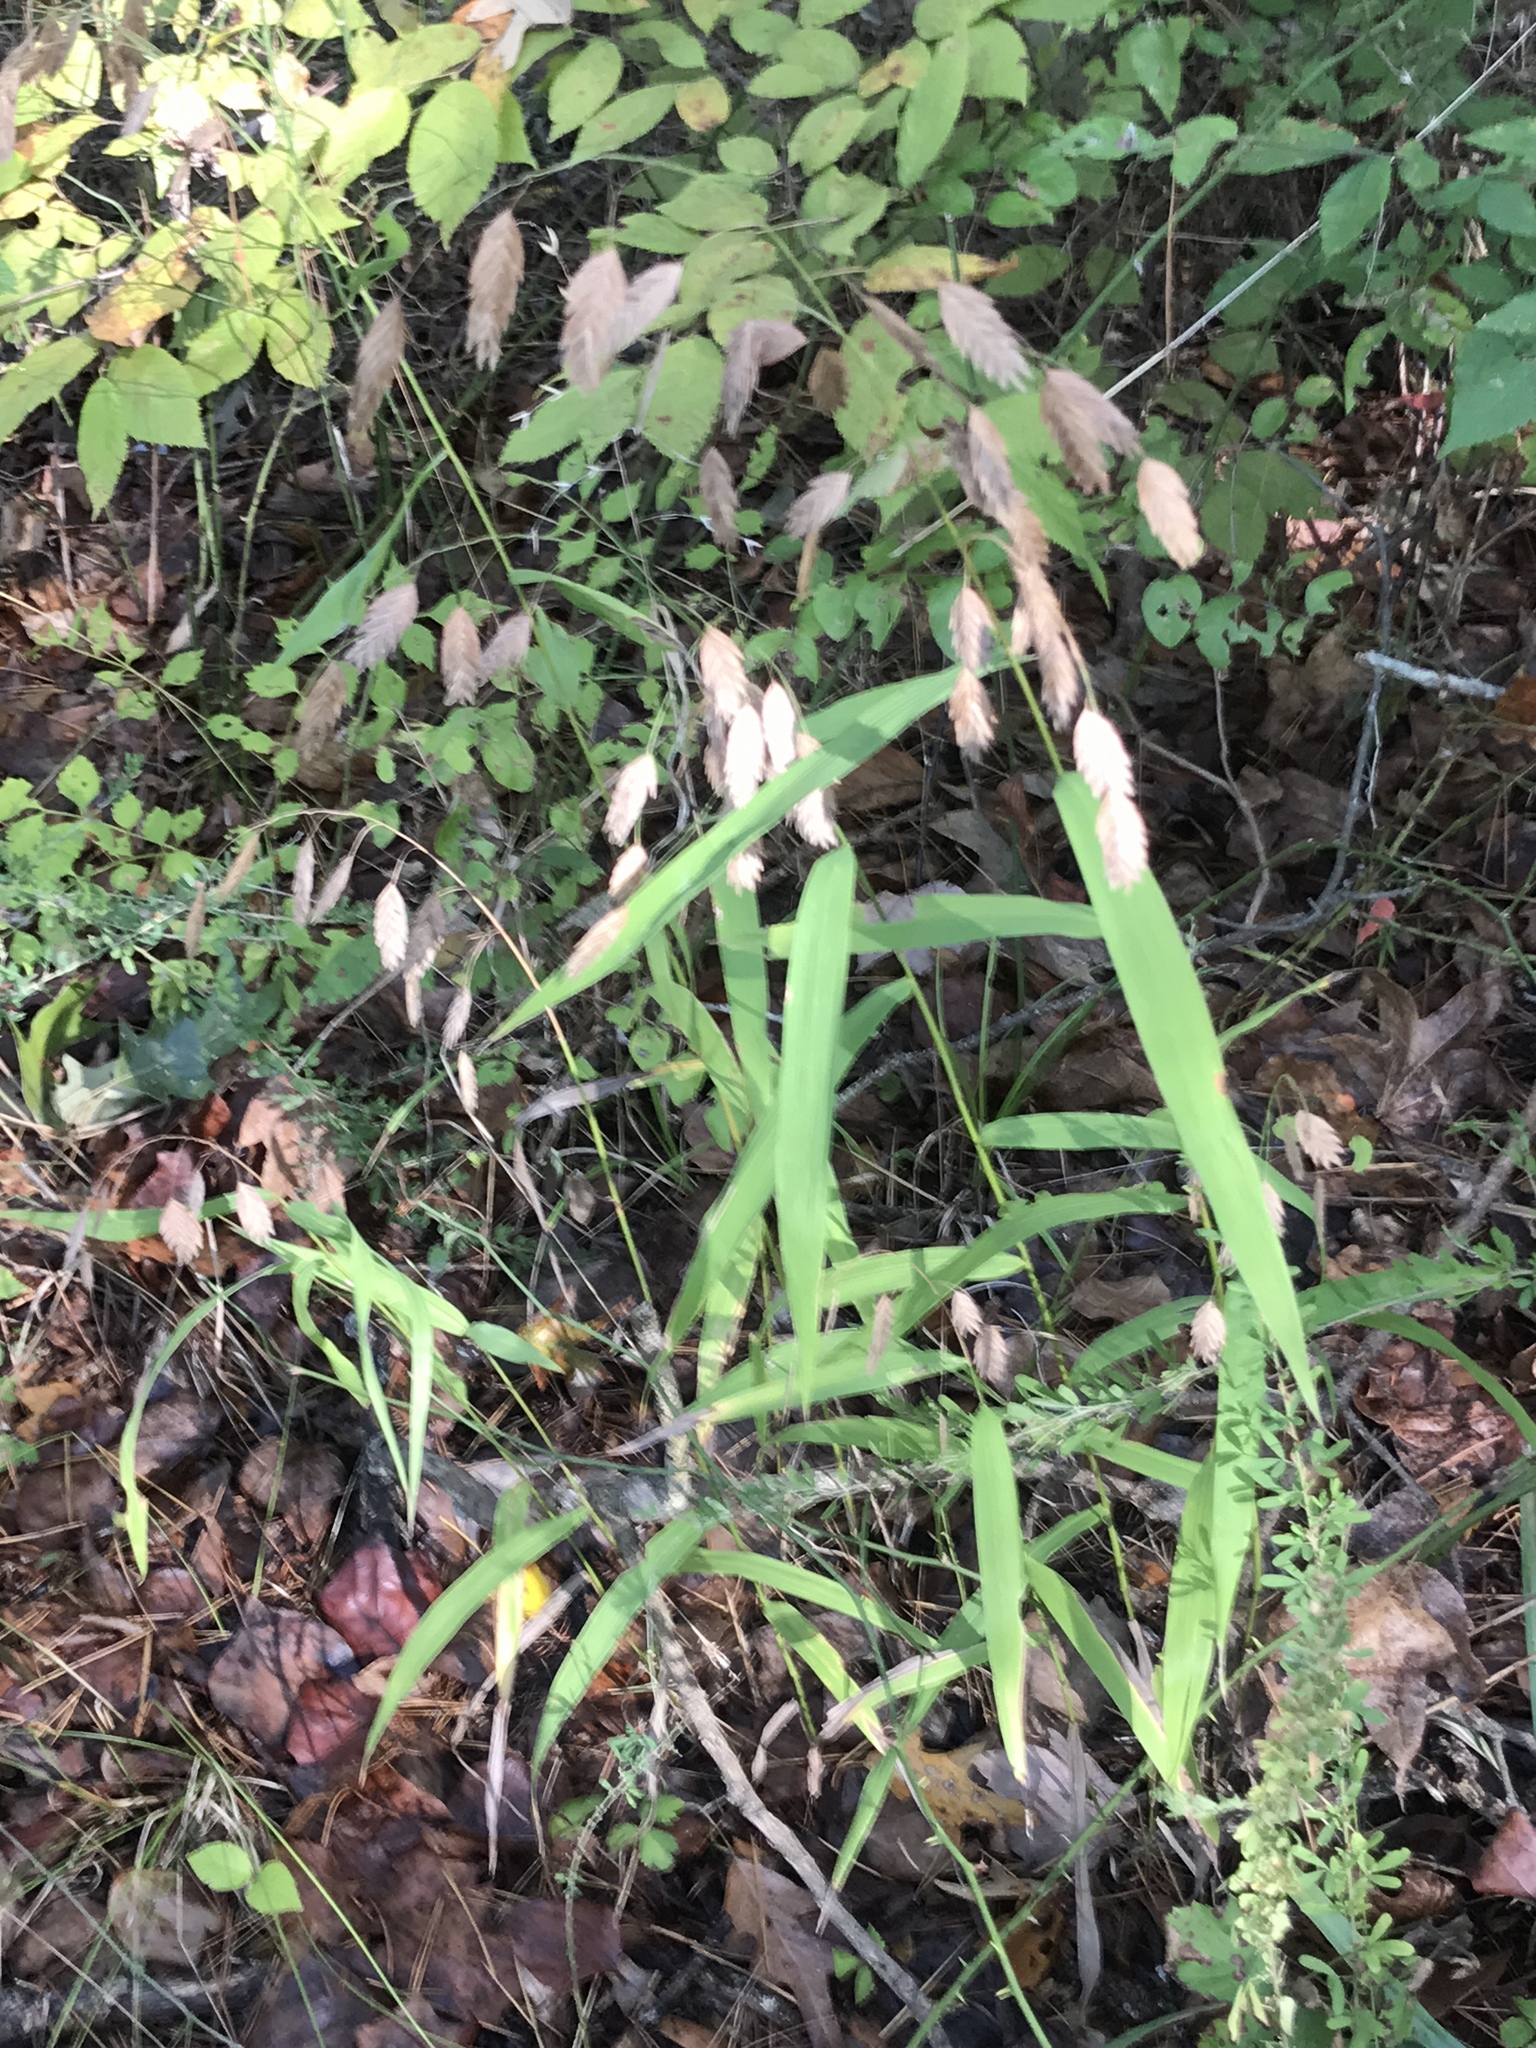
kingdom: Plantae
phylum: Tracheophyta
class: Liliopsida
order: Poales
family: Poaceae
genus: Chasmanthium
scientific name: Chasmanthium latifolium
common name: Broad-leaved chasmanthium
